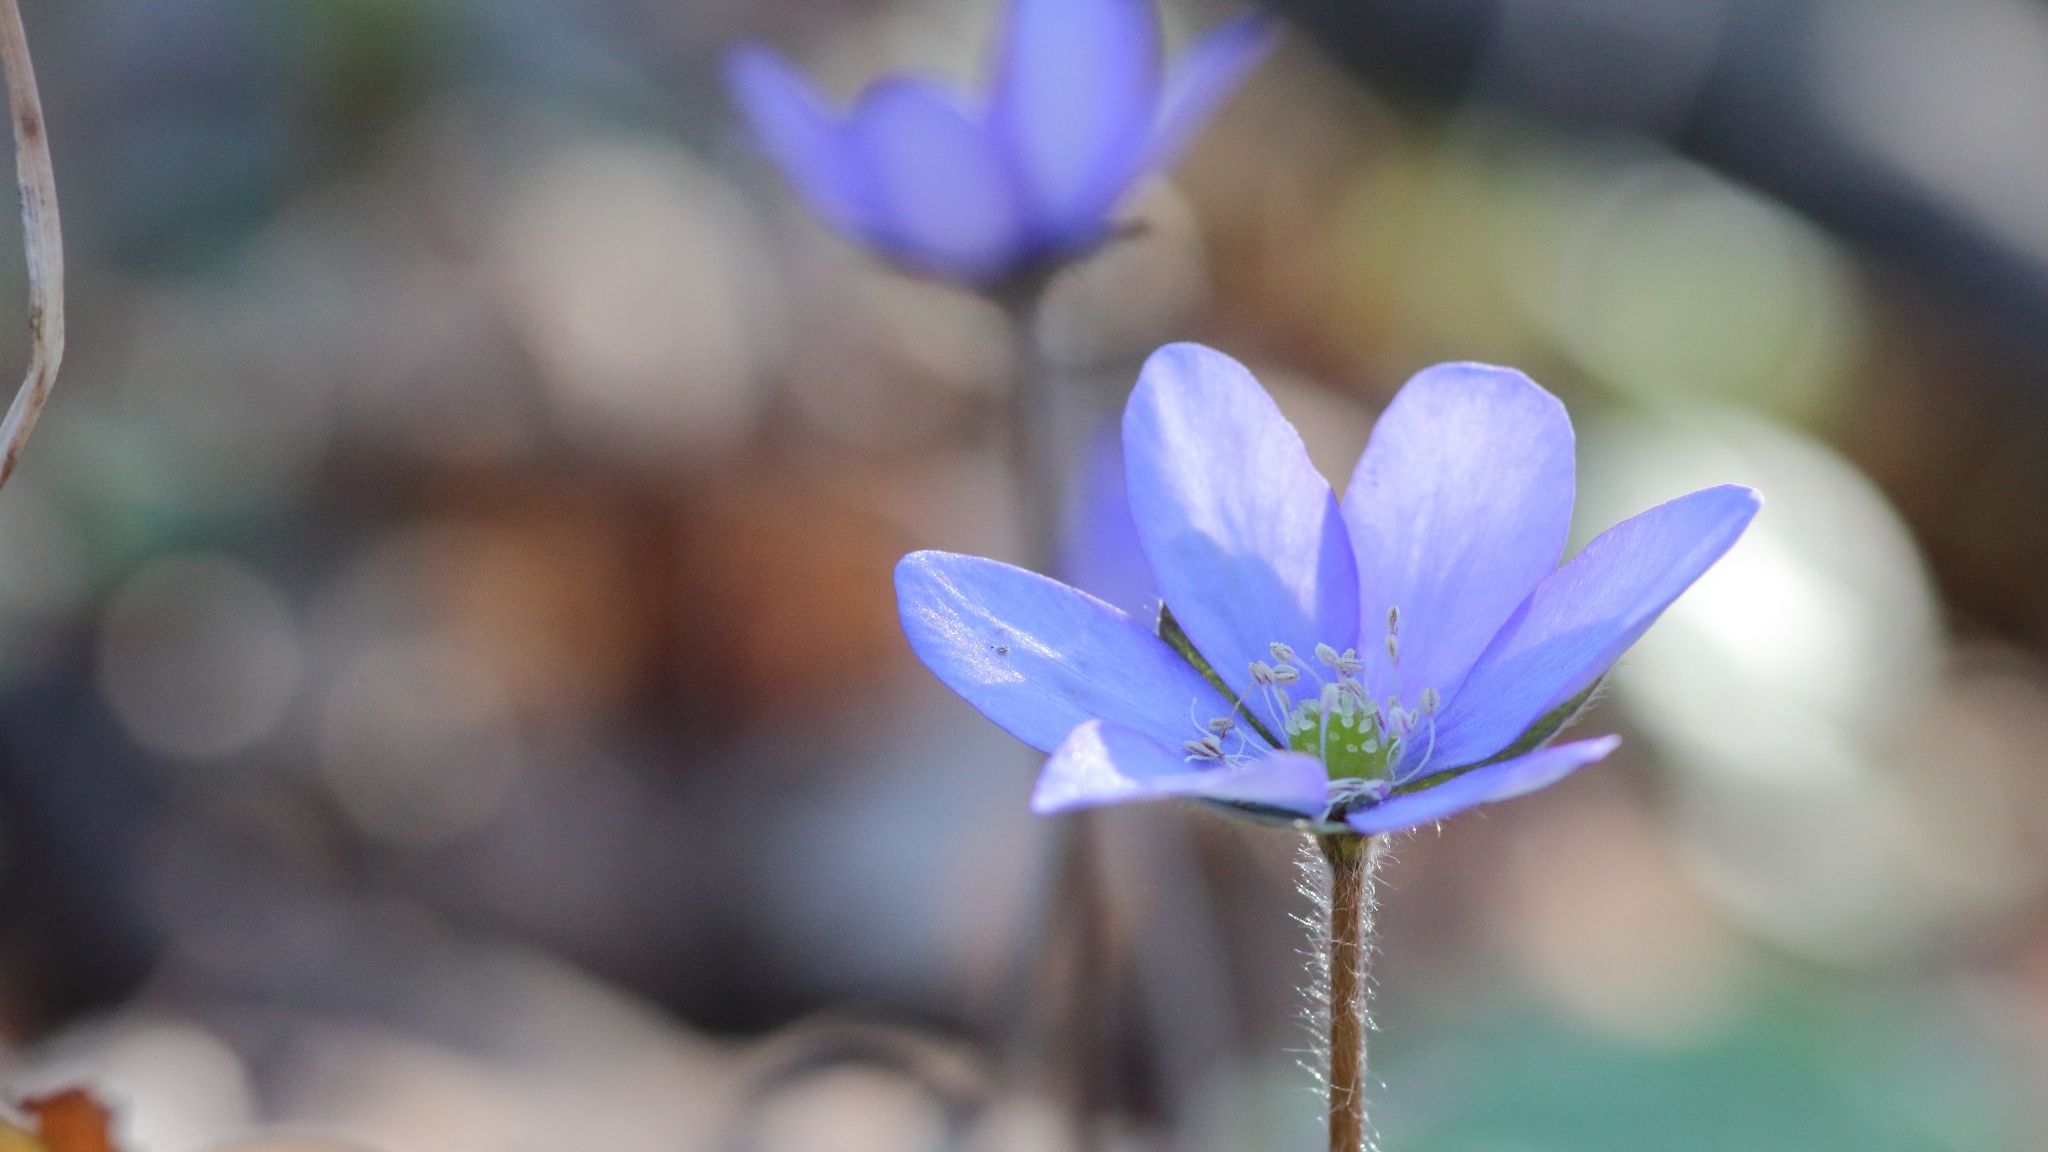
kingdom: Plantae
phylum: Tracheophyta
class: Magnoliopsida
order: Ranunculales
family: Ranunculaceae
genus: Hepatica
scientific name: Hepatica nobilis
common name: Liverleaf
